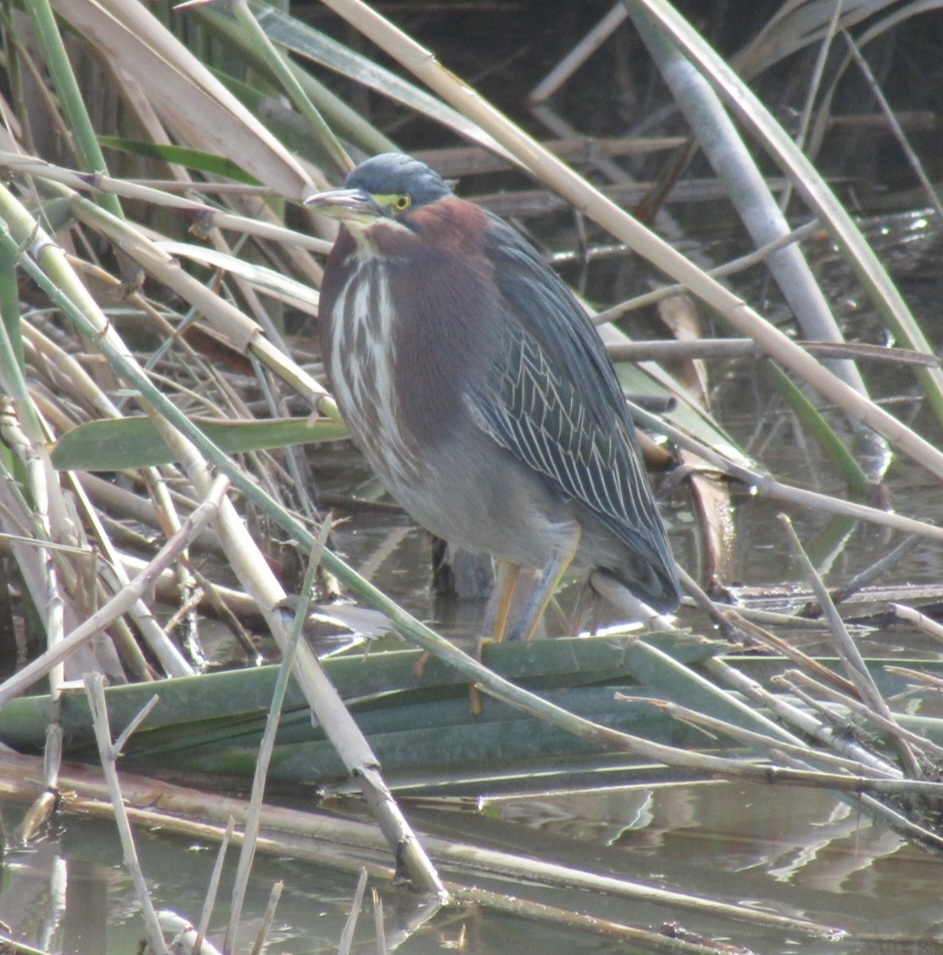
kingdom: Animalia
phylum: Chordata
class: Aves
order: Pelecaniformes
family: Ardeidae
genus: Butorides
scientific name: Butorides virescens
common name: Green heron
